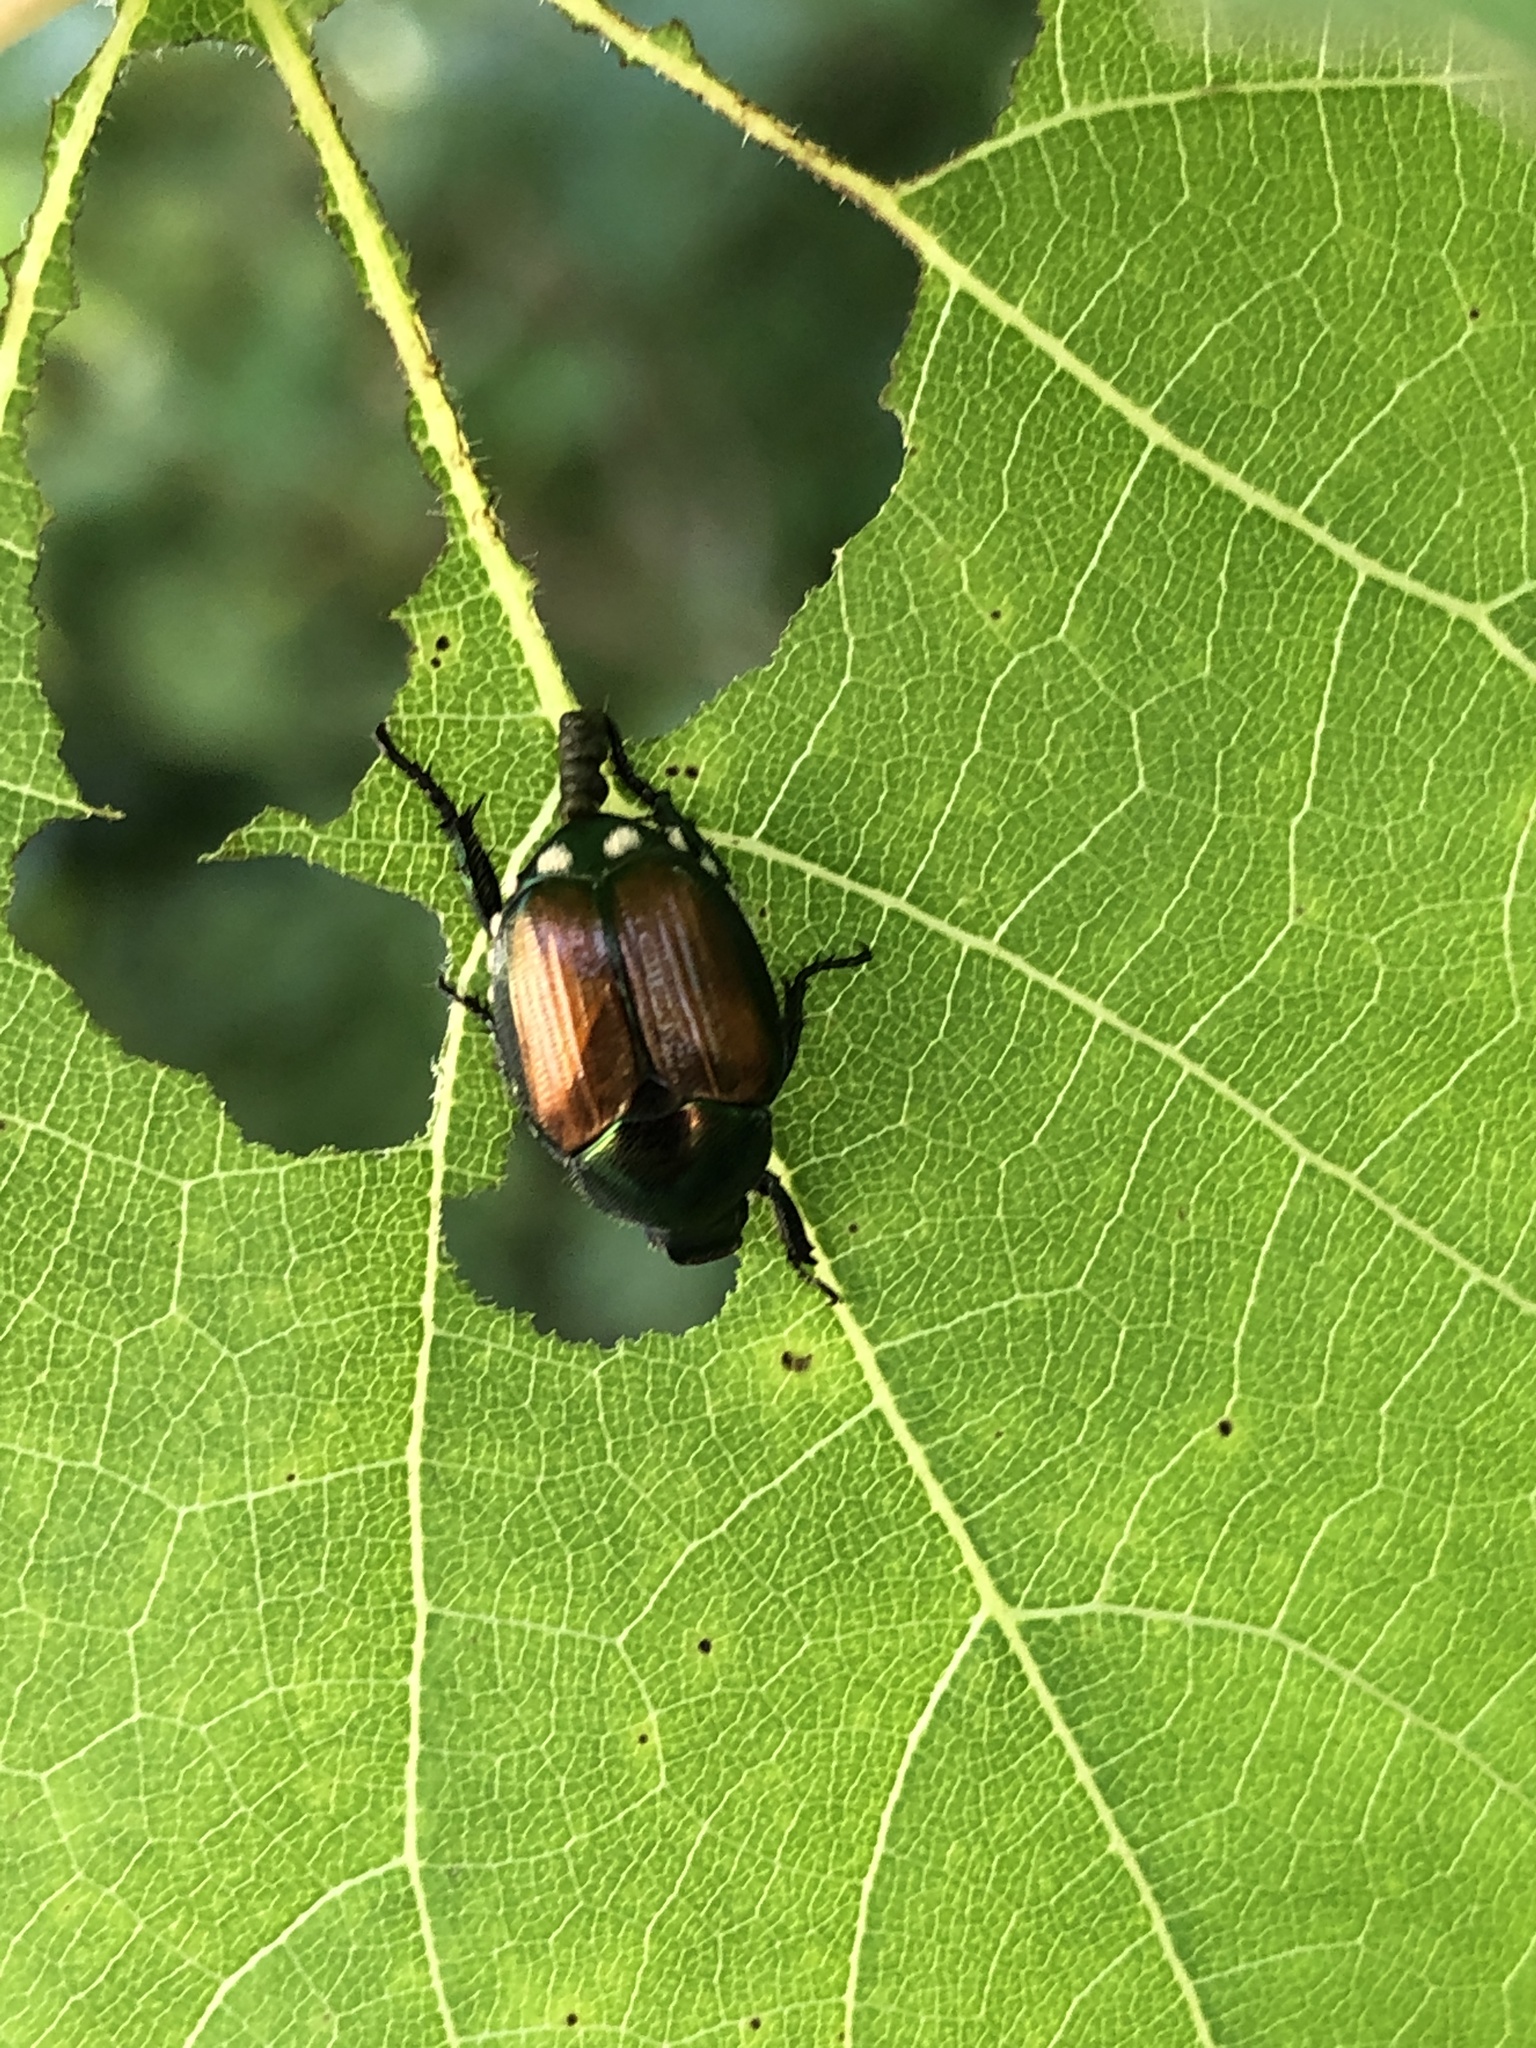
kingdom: Animalia
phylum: Arthropoda
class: Insecta
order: Coleoptera
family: Scarabaeidae
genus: Popillia
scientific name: Popillia japonica
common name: Japanese beetle
